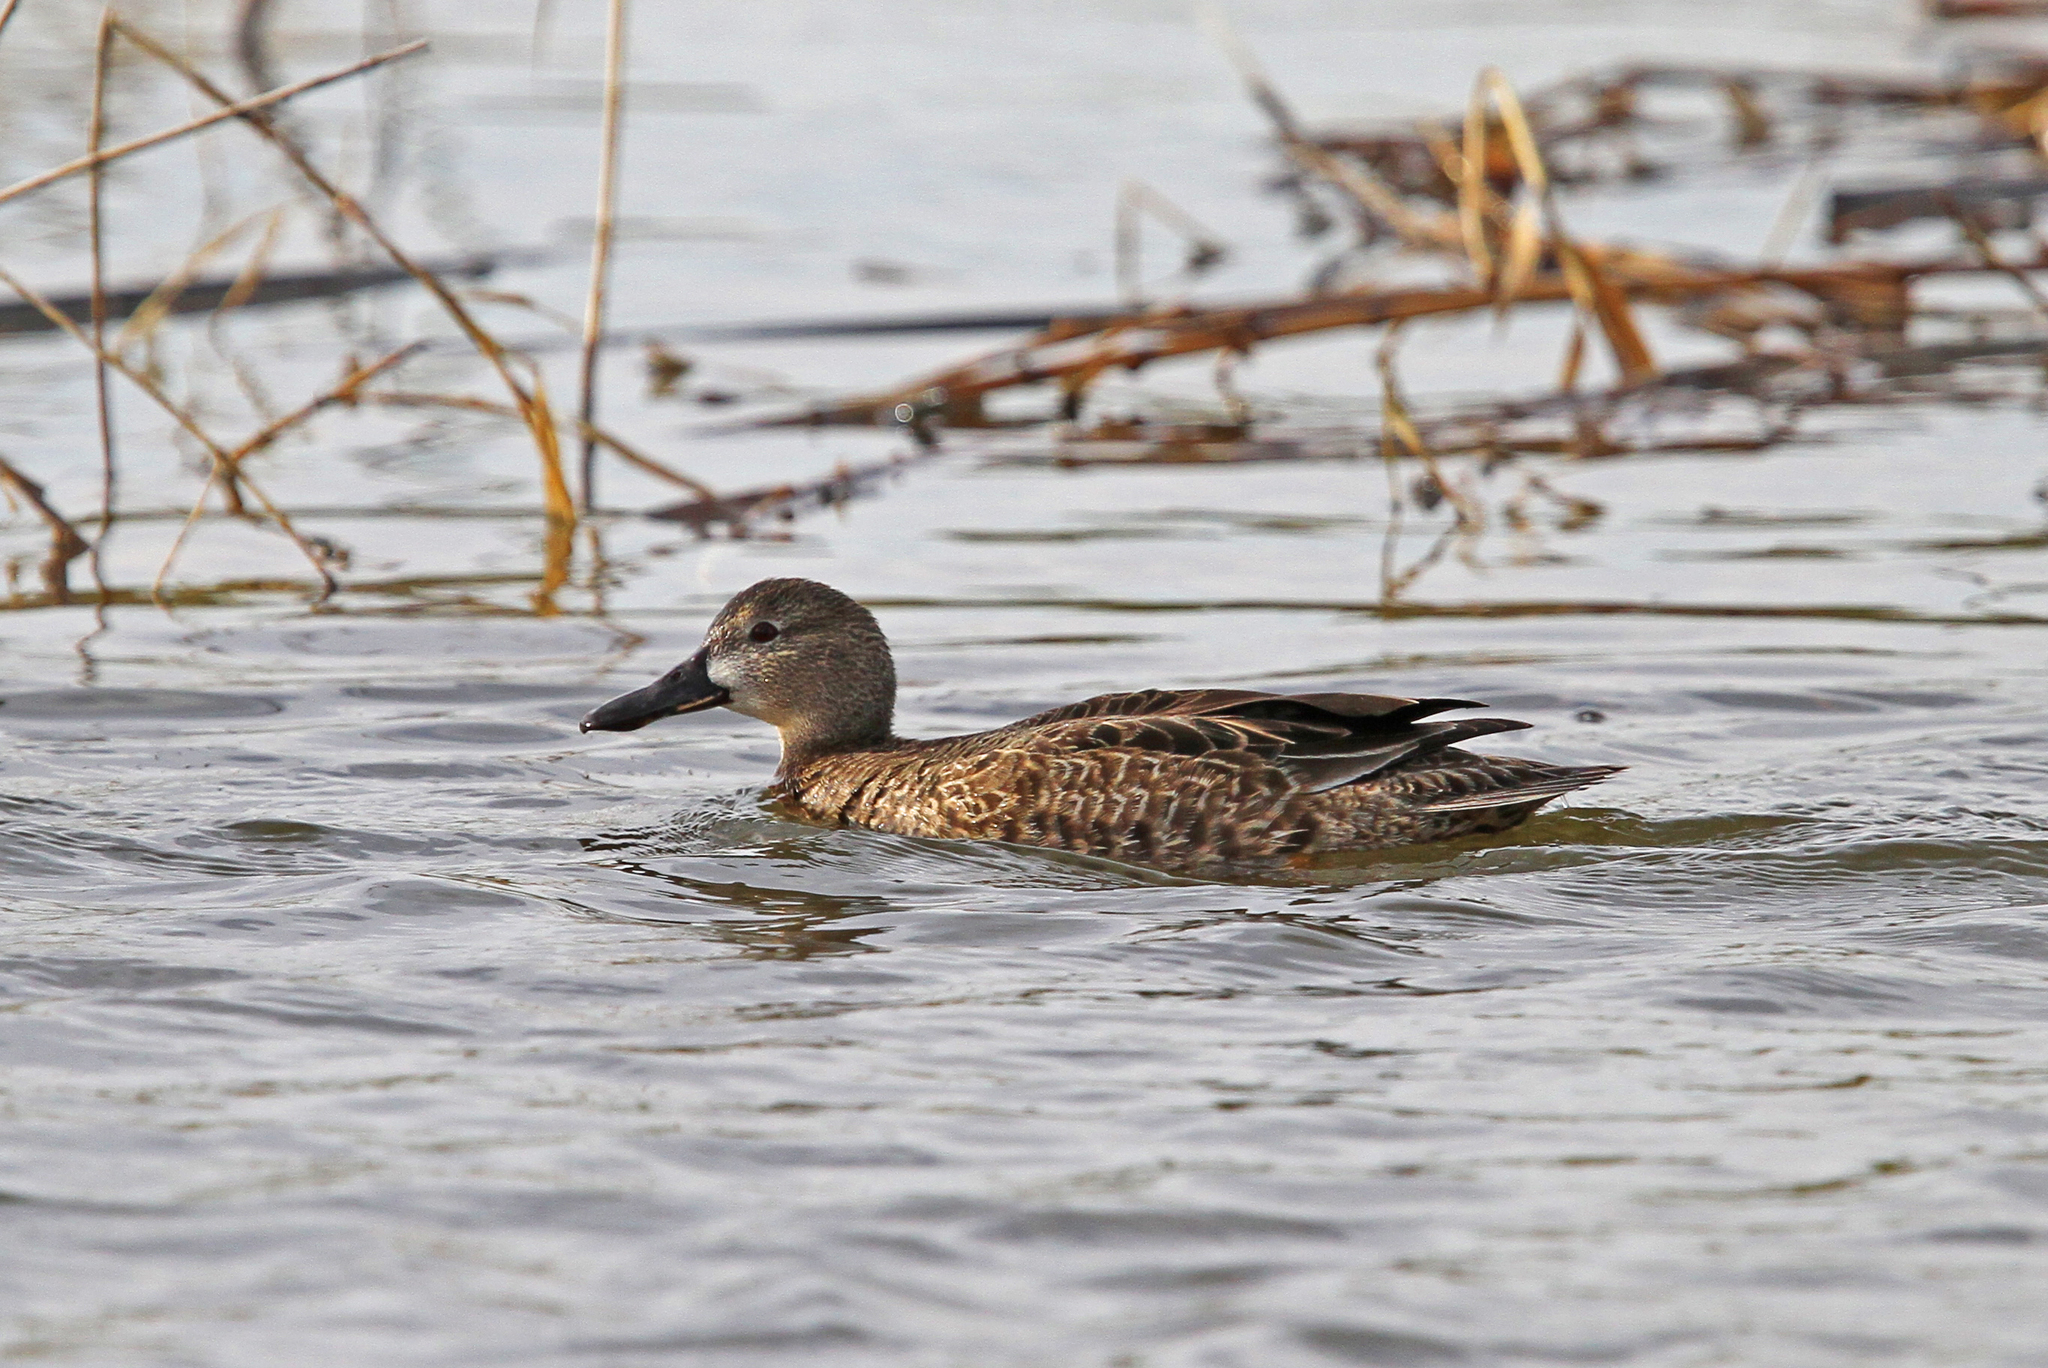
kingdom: Animalia
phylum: Chordata
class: Aves
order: Anseriformes
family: Anatidae
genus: Spatula
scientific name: Spatula cyanoptera
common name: Cinnamon teal
